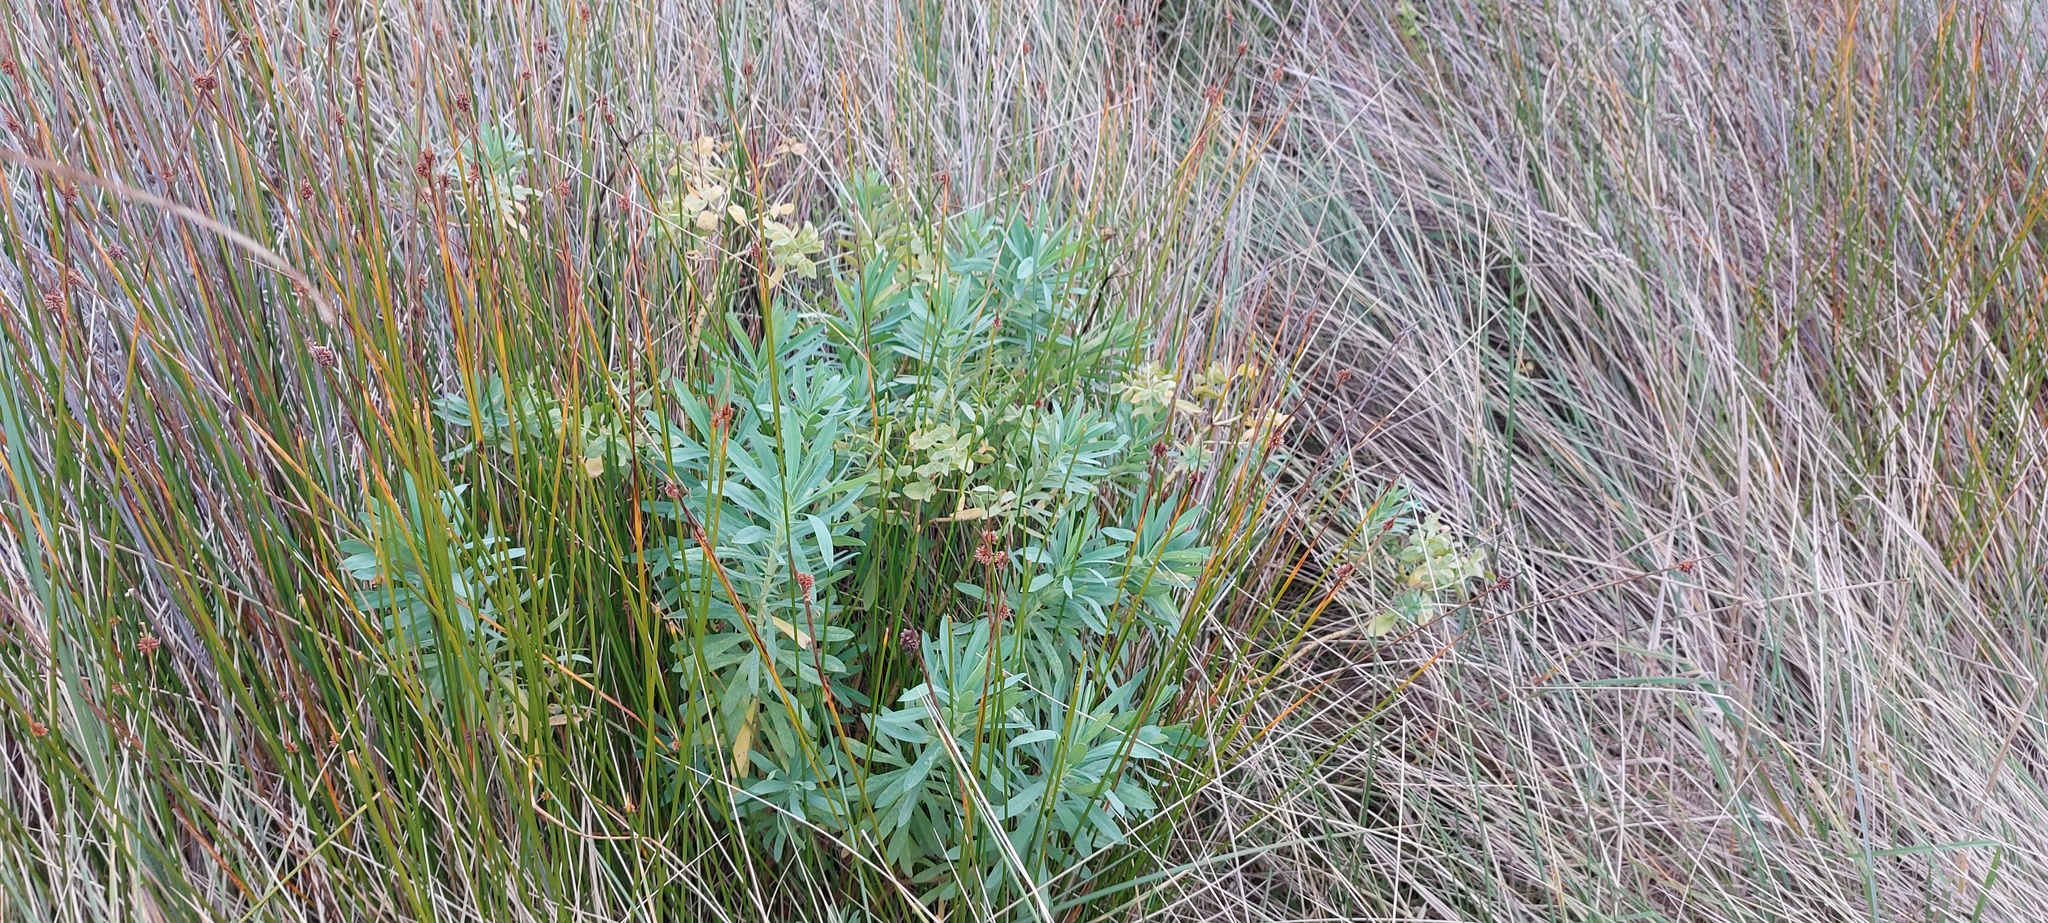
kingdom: Plantae
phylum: Tracheophyta
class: Magnoliopsida
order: Malpighiales
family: Euphorbiaceae
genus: Euphorbia
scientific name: Euphorbia glauca
